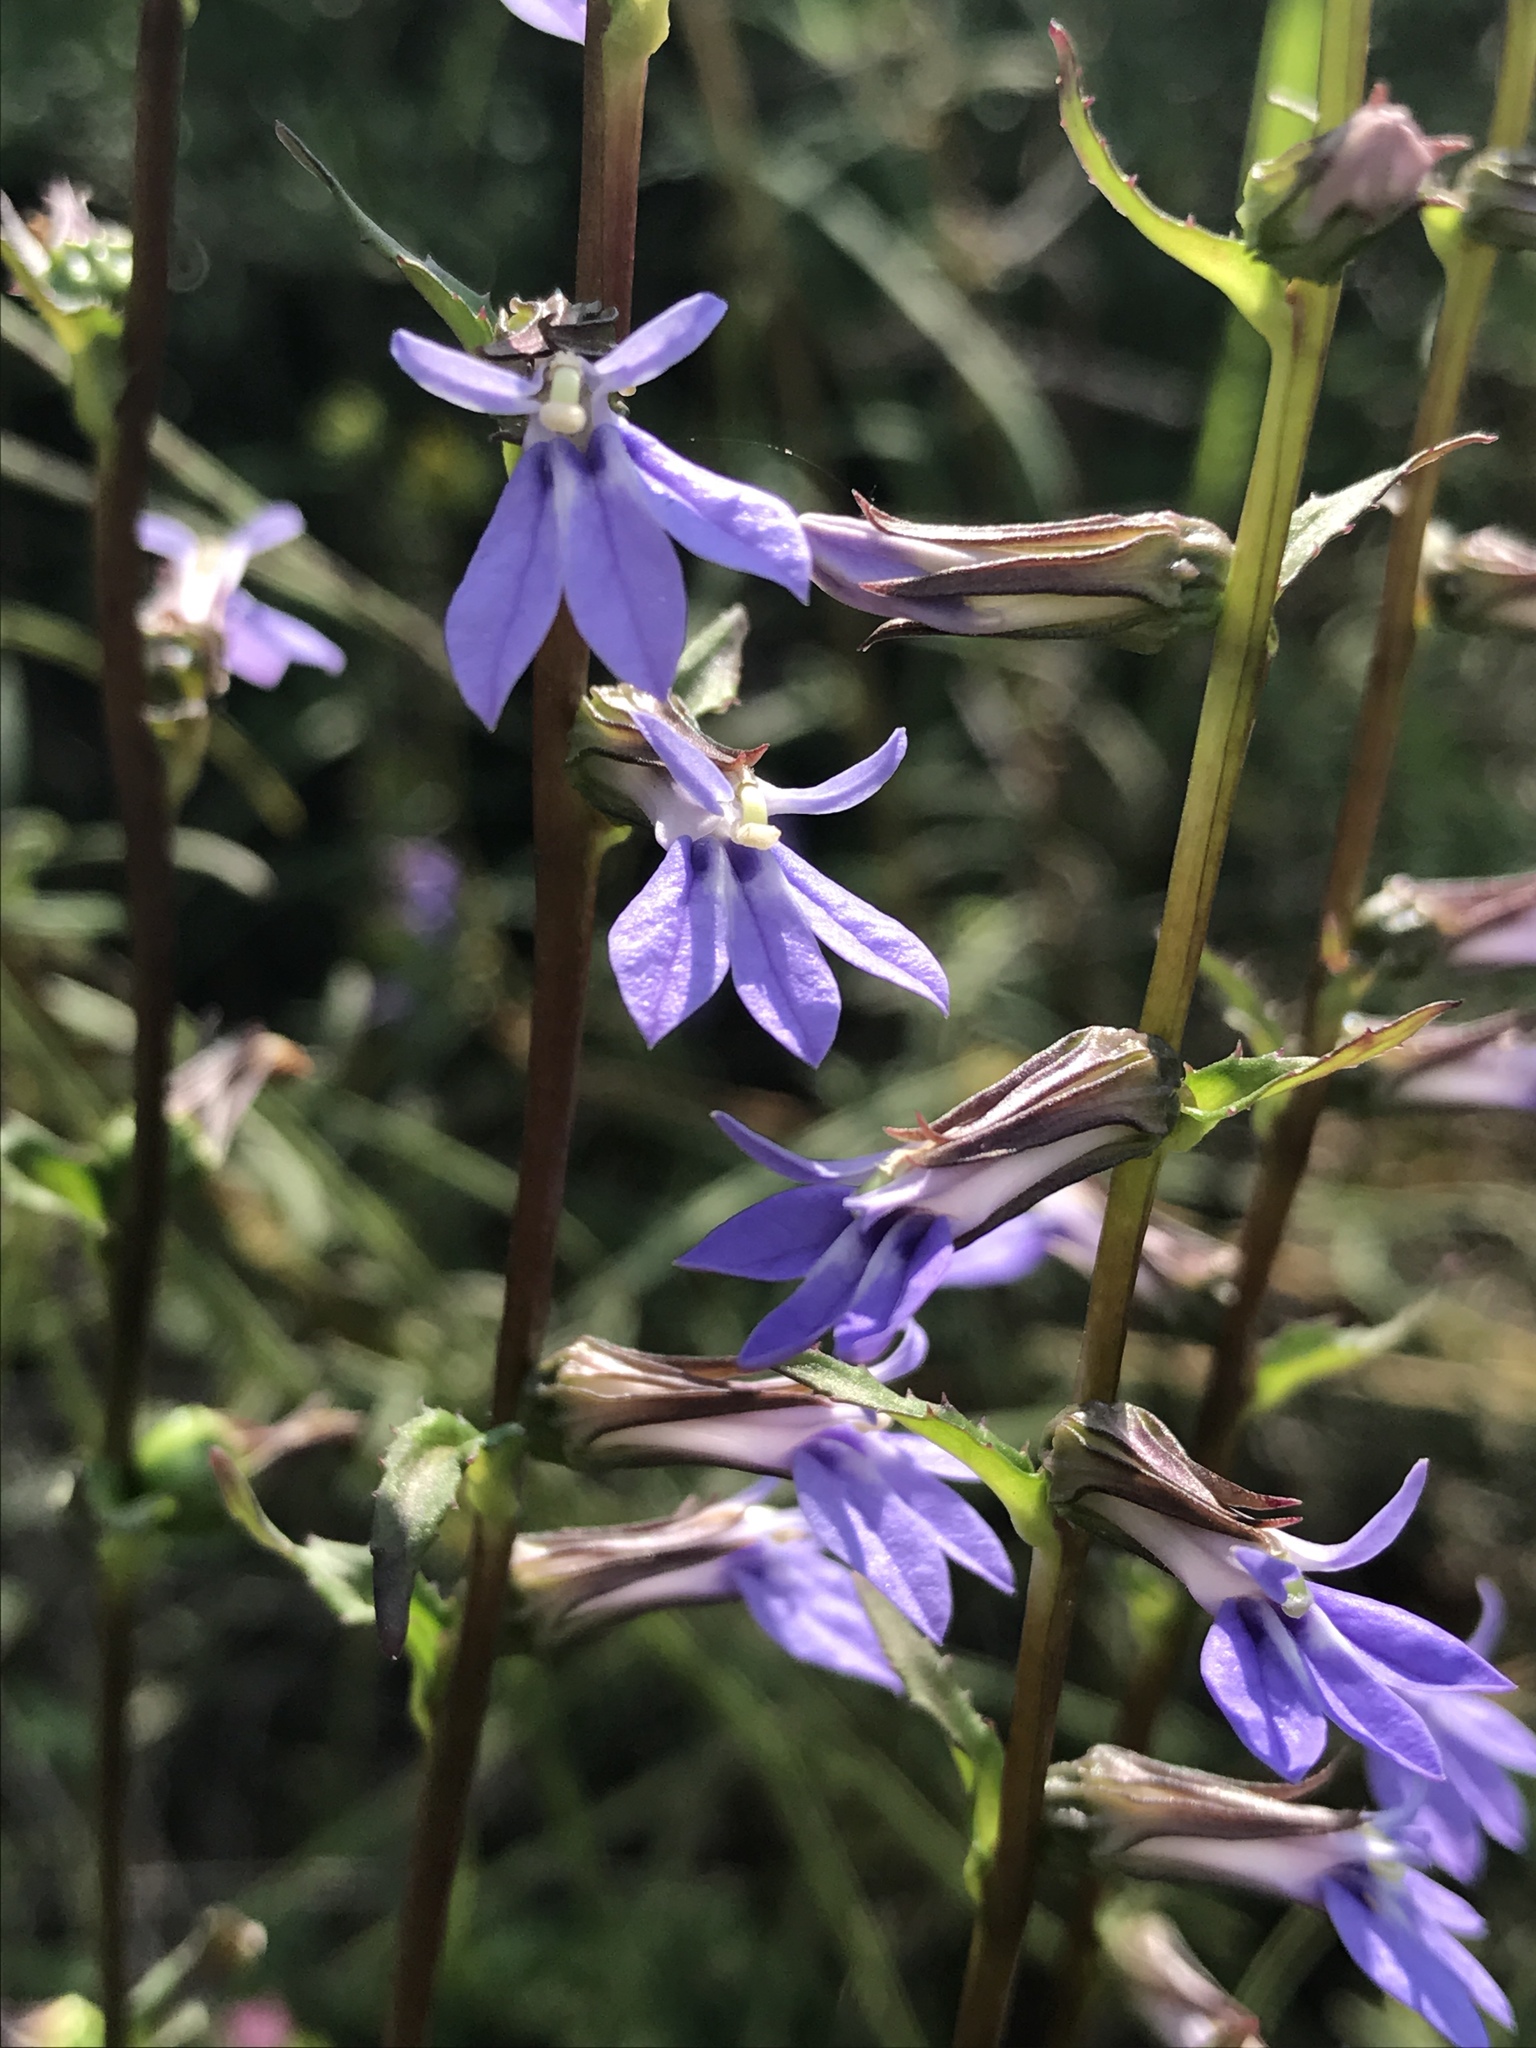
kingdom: Plantae
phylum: Tracheophyta
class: Magnoliopsida
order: Asterales
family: Campanulaceae
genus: Lobelia
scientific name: Lobelia puberula
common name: Purple dewdrop
